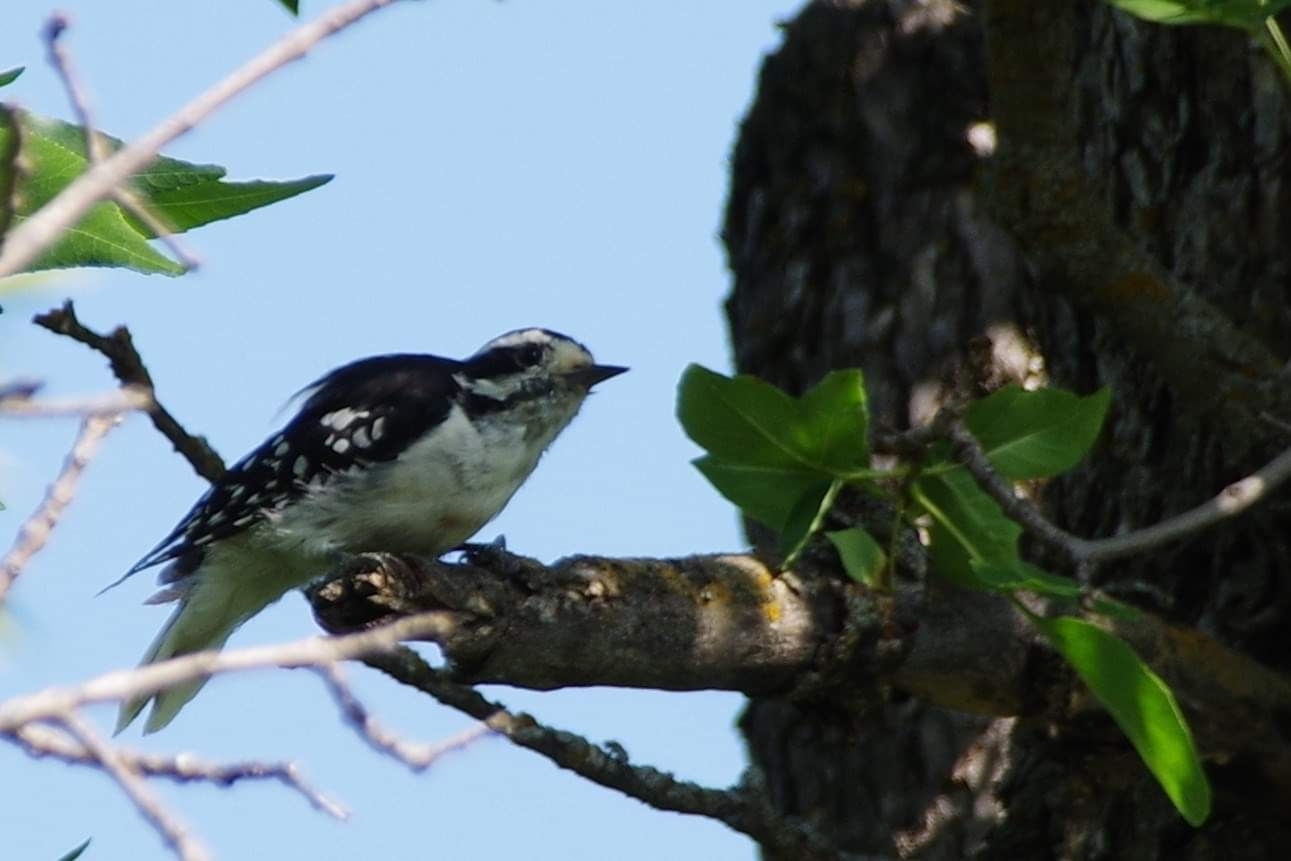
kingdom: Animalia
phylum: Chordata
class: Aves
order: Piciformes
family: Picidae
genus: Dryobates
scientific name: Dryobates pubescens
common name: Downy woodpecker
